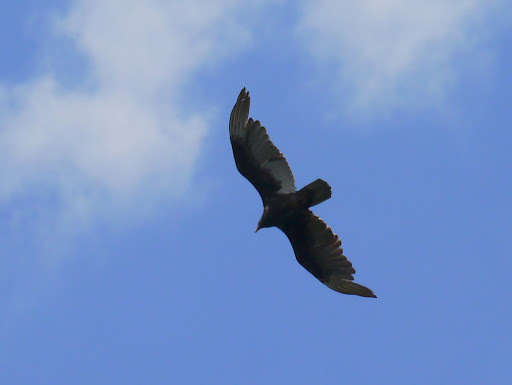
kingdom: Animalia
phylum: Chordata
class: Aves
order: Accipitriformes
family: Cathartidae
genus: Cathartes
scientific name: Cathartes aura
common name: Turkey vulture
